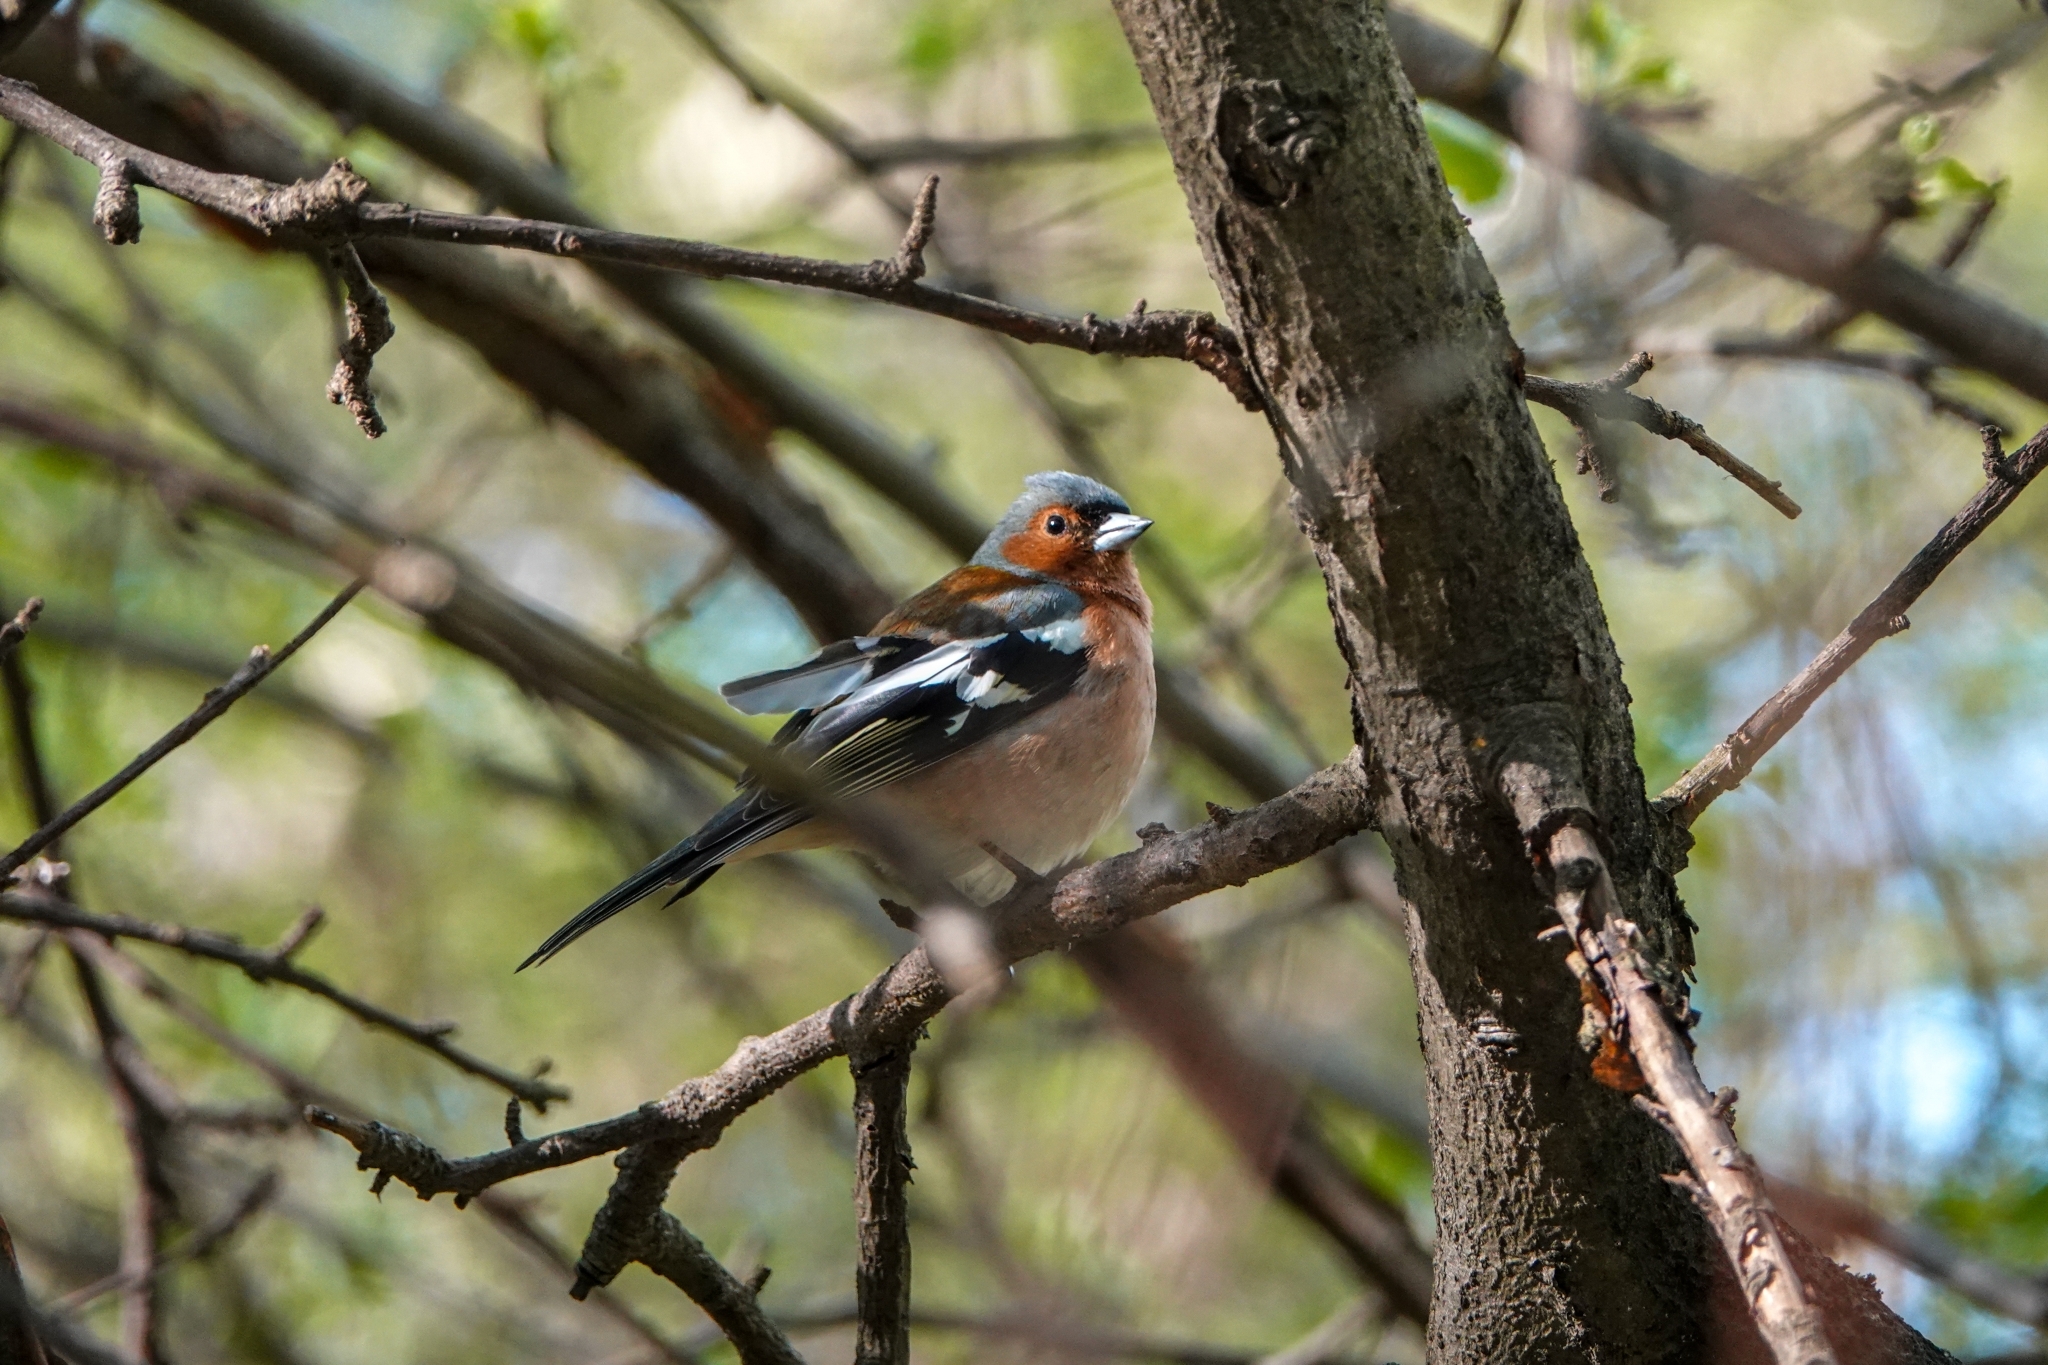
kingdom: Animalia
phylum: Chordata
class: Aves
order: Passeriformes
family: Fringillidae
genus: Fringilla
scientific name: Fringilla coelebs
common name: Common chaffinch
